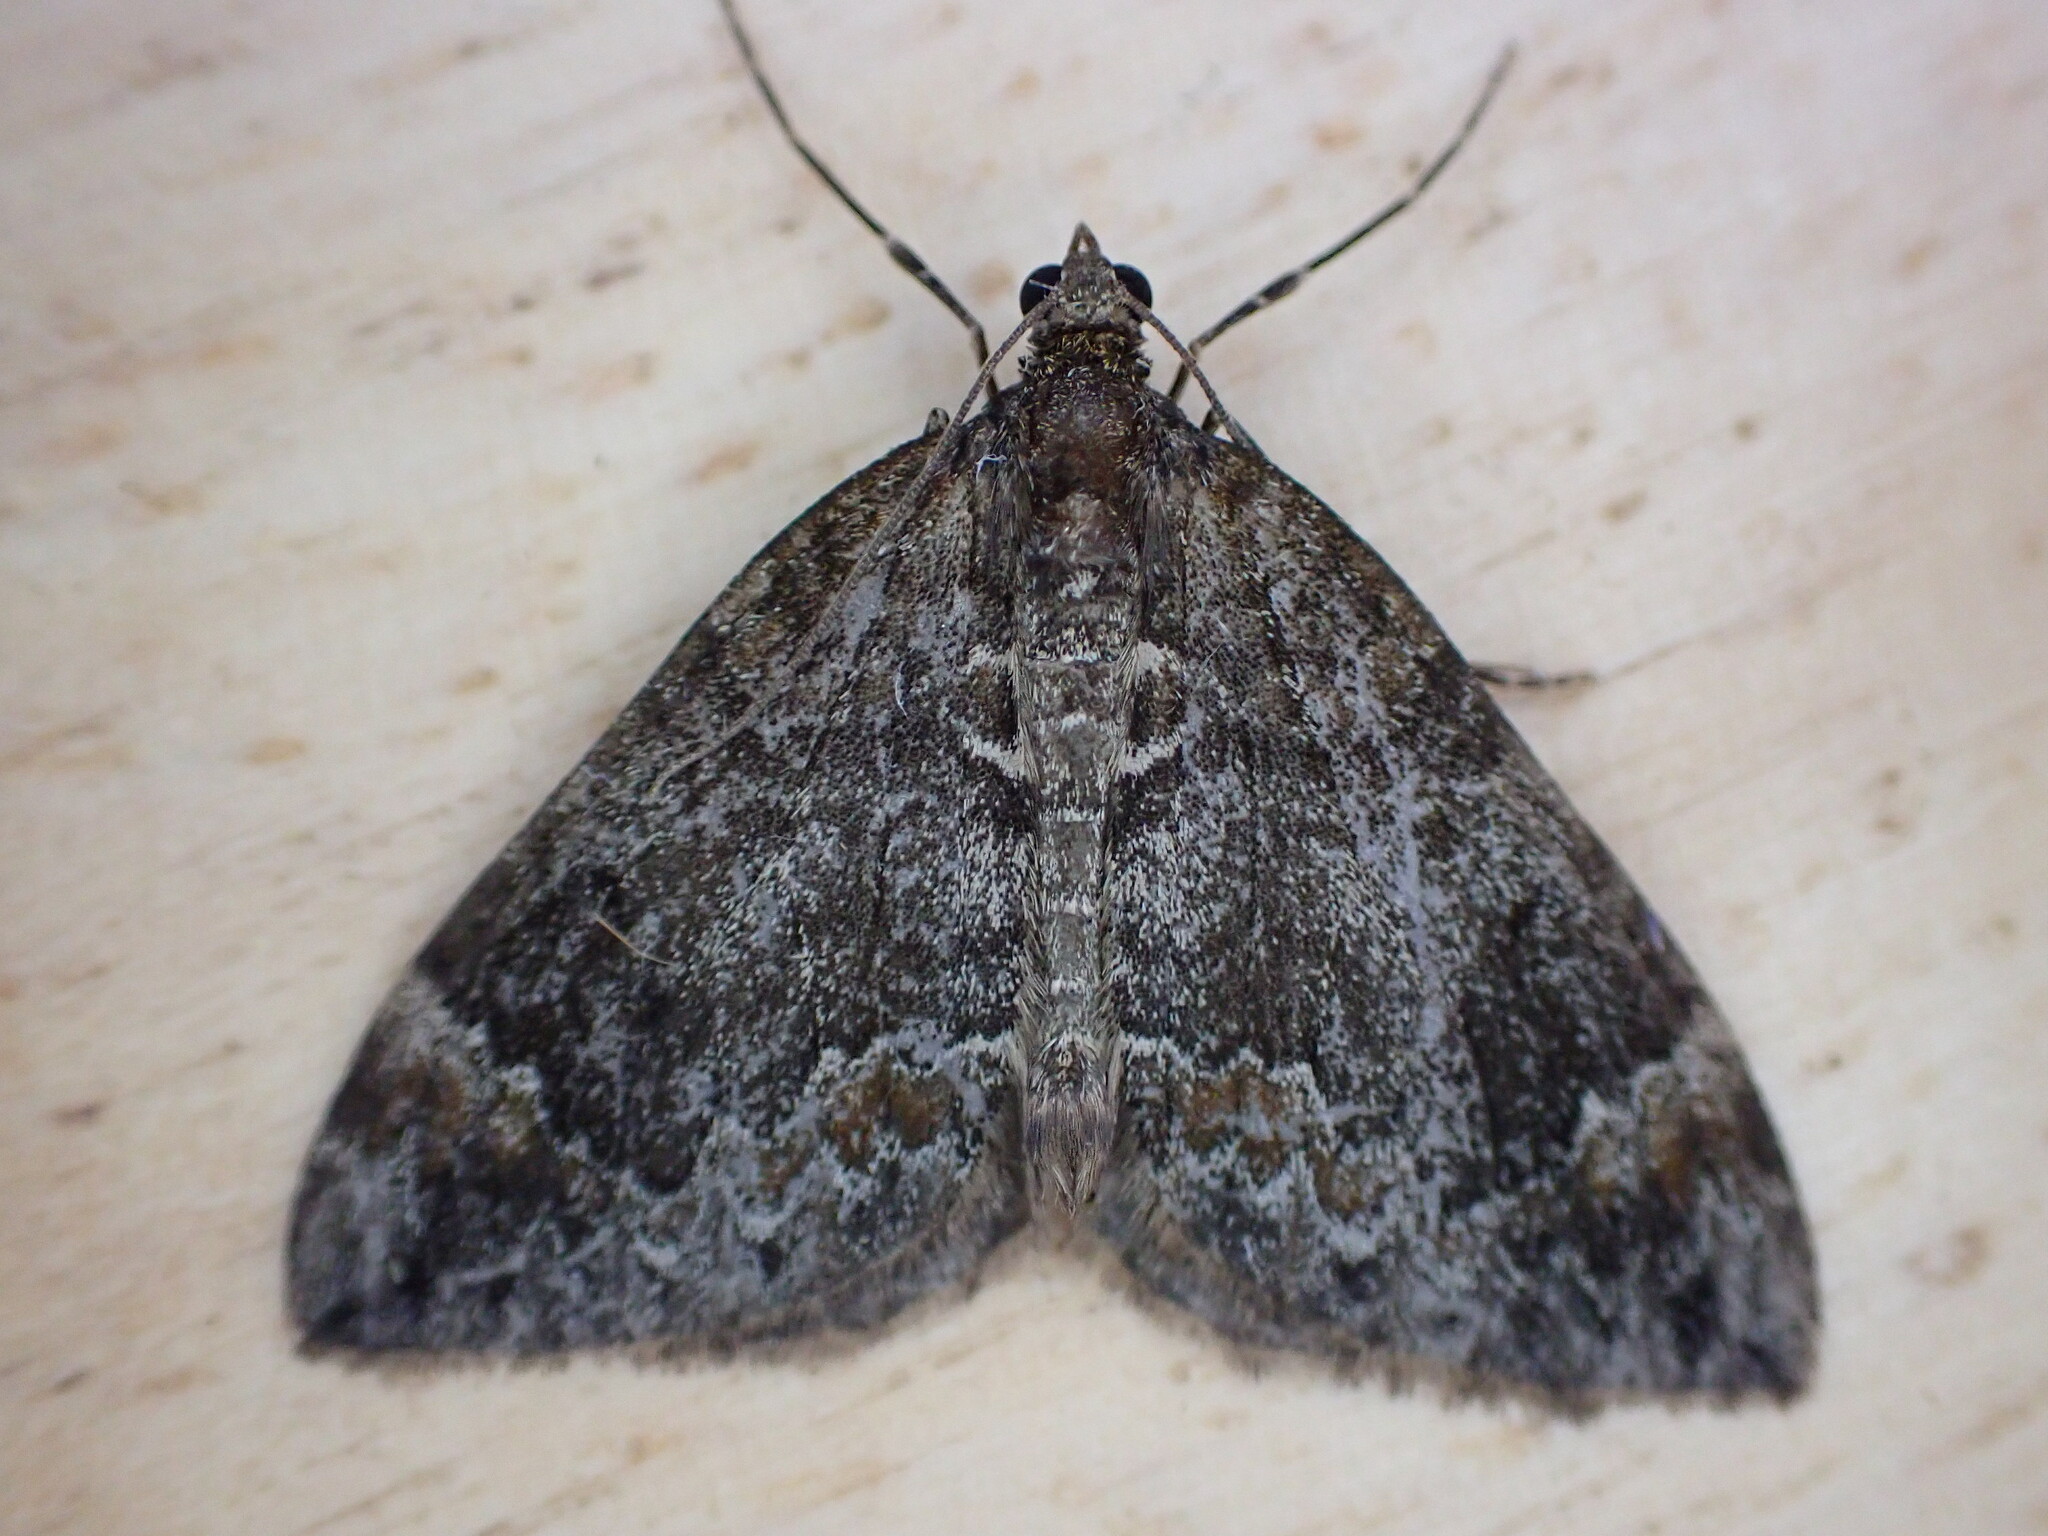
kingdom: Animalia
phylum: Arthropoda
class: Insecta
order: Lepidoptera
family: Geometridae
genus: Dysstroma
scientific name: Dysstroma truncata
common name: Common marbled carpet
